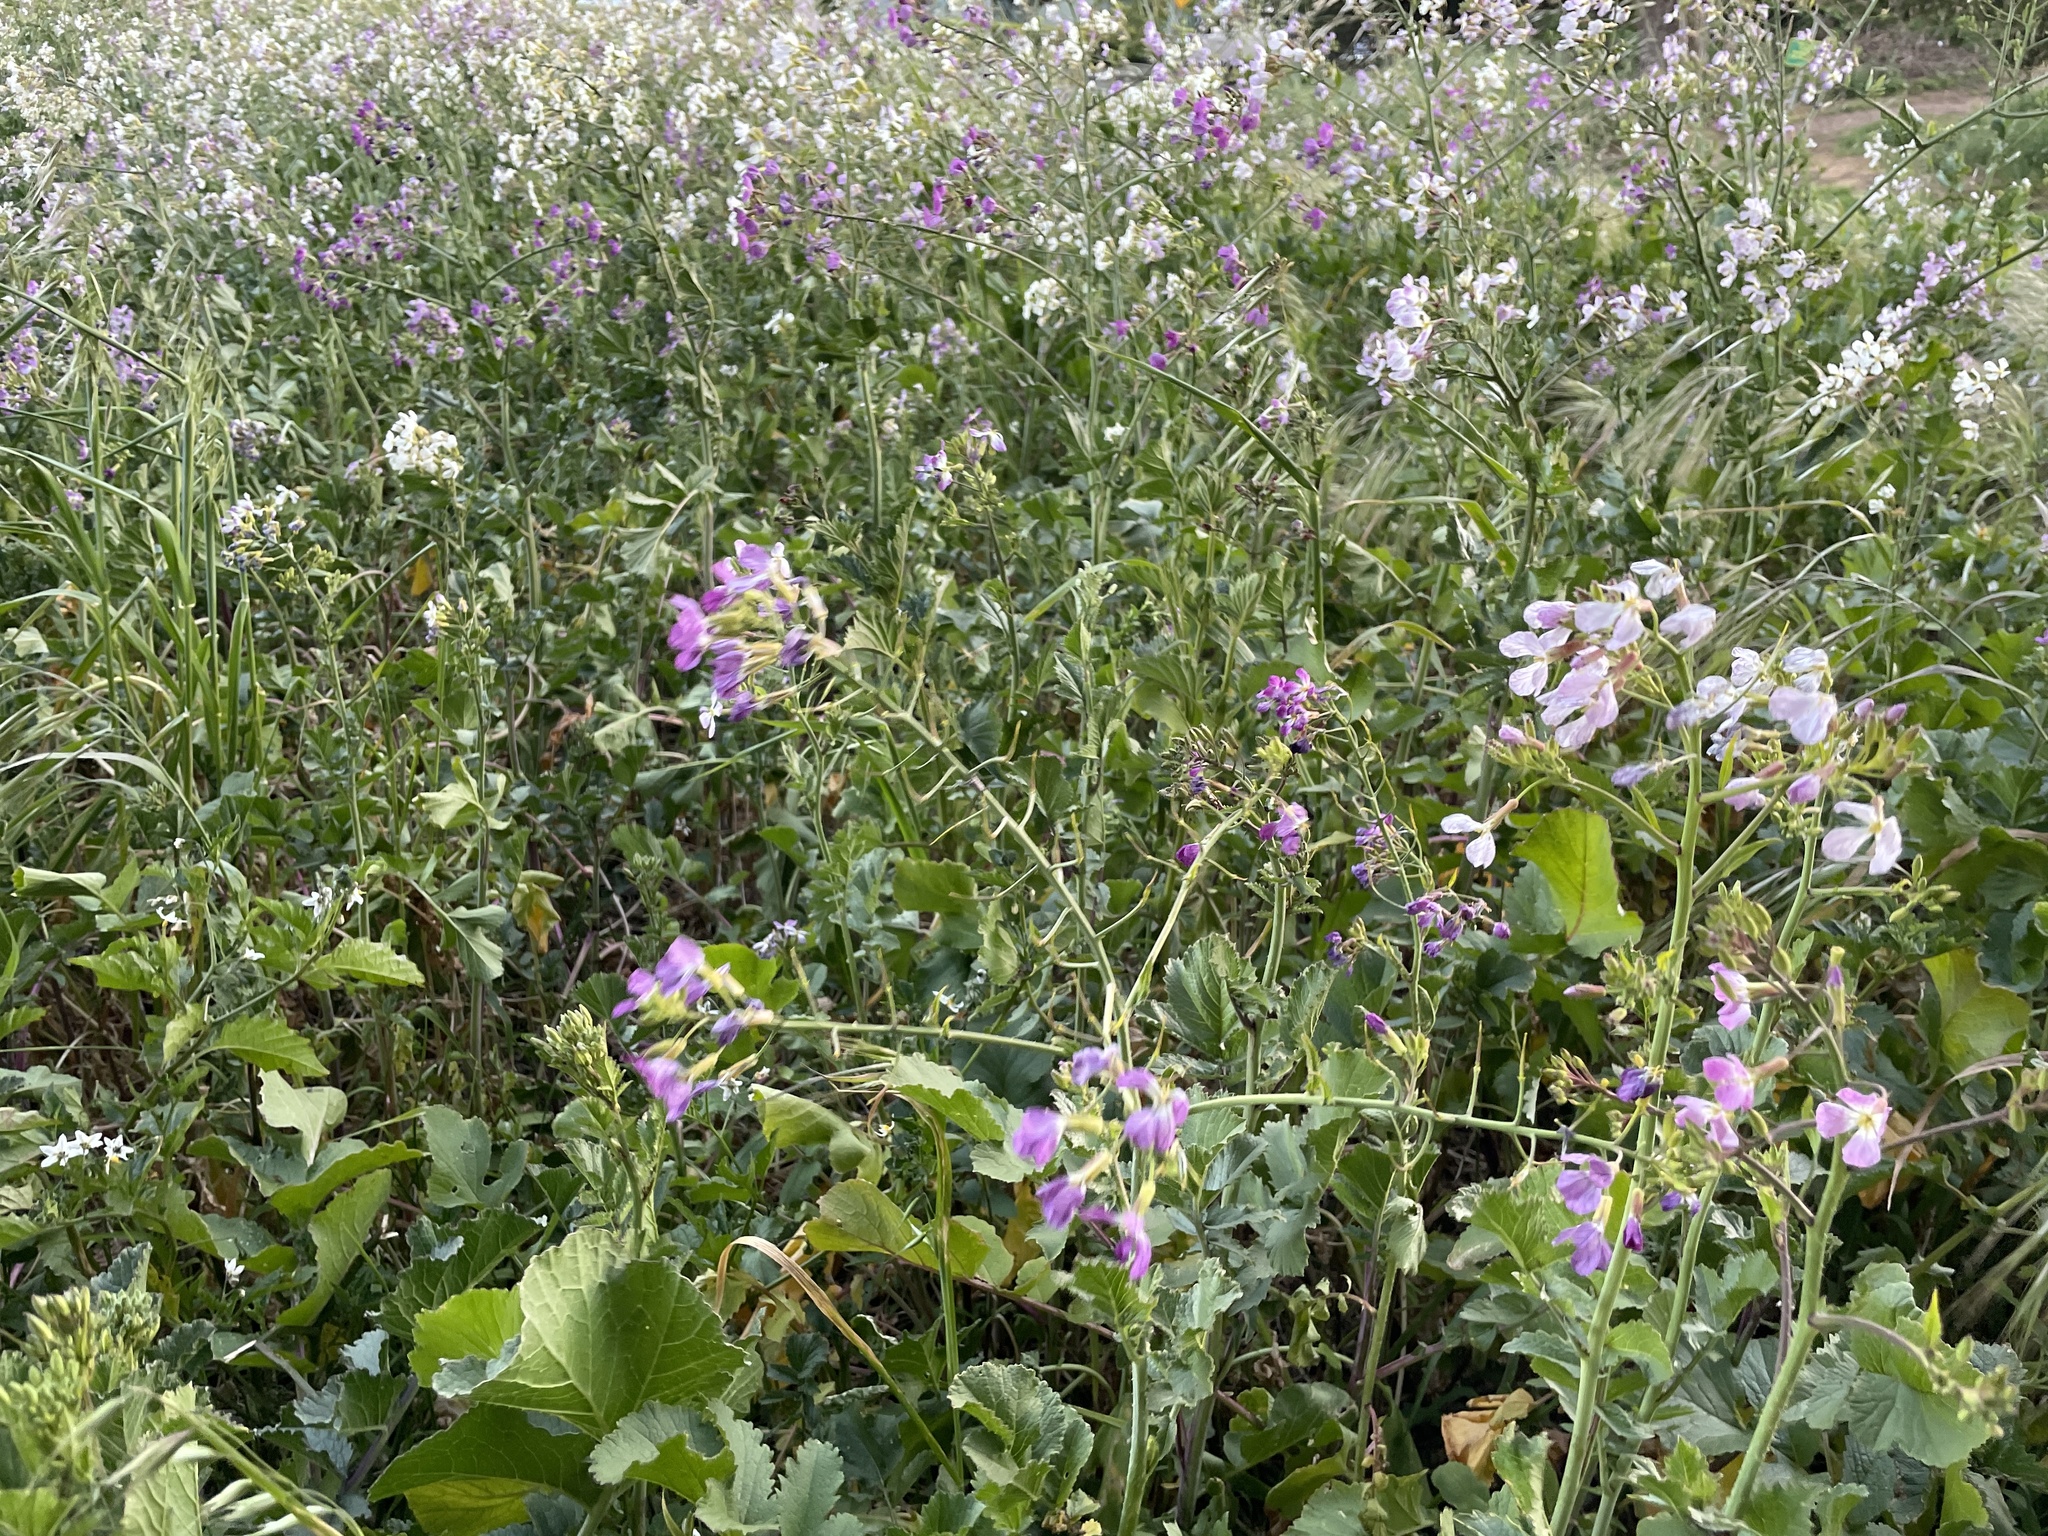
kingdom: Plantae
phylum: Tracheophyta
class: Magnoliopsida
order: Brassicales
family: Brassicaceae
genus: Raphanus
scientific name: Raphanus sativus
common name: Cultivated radish
